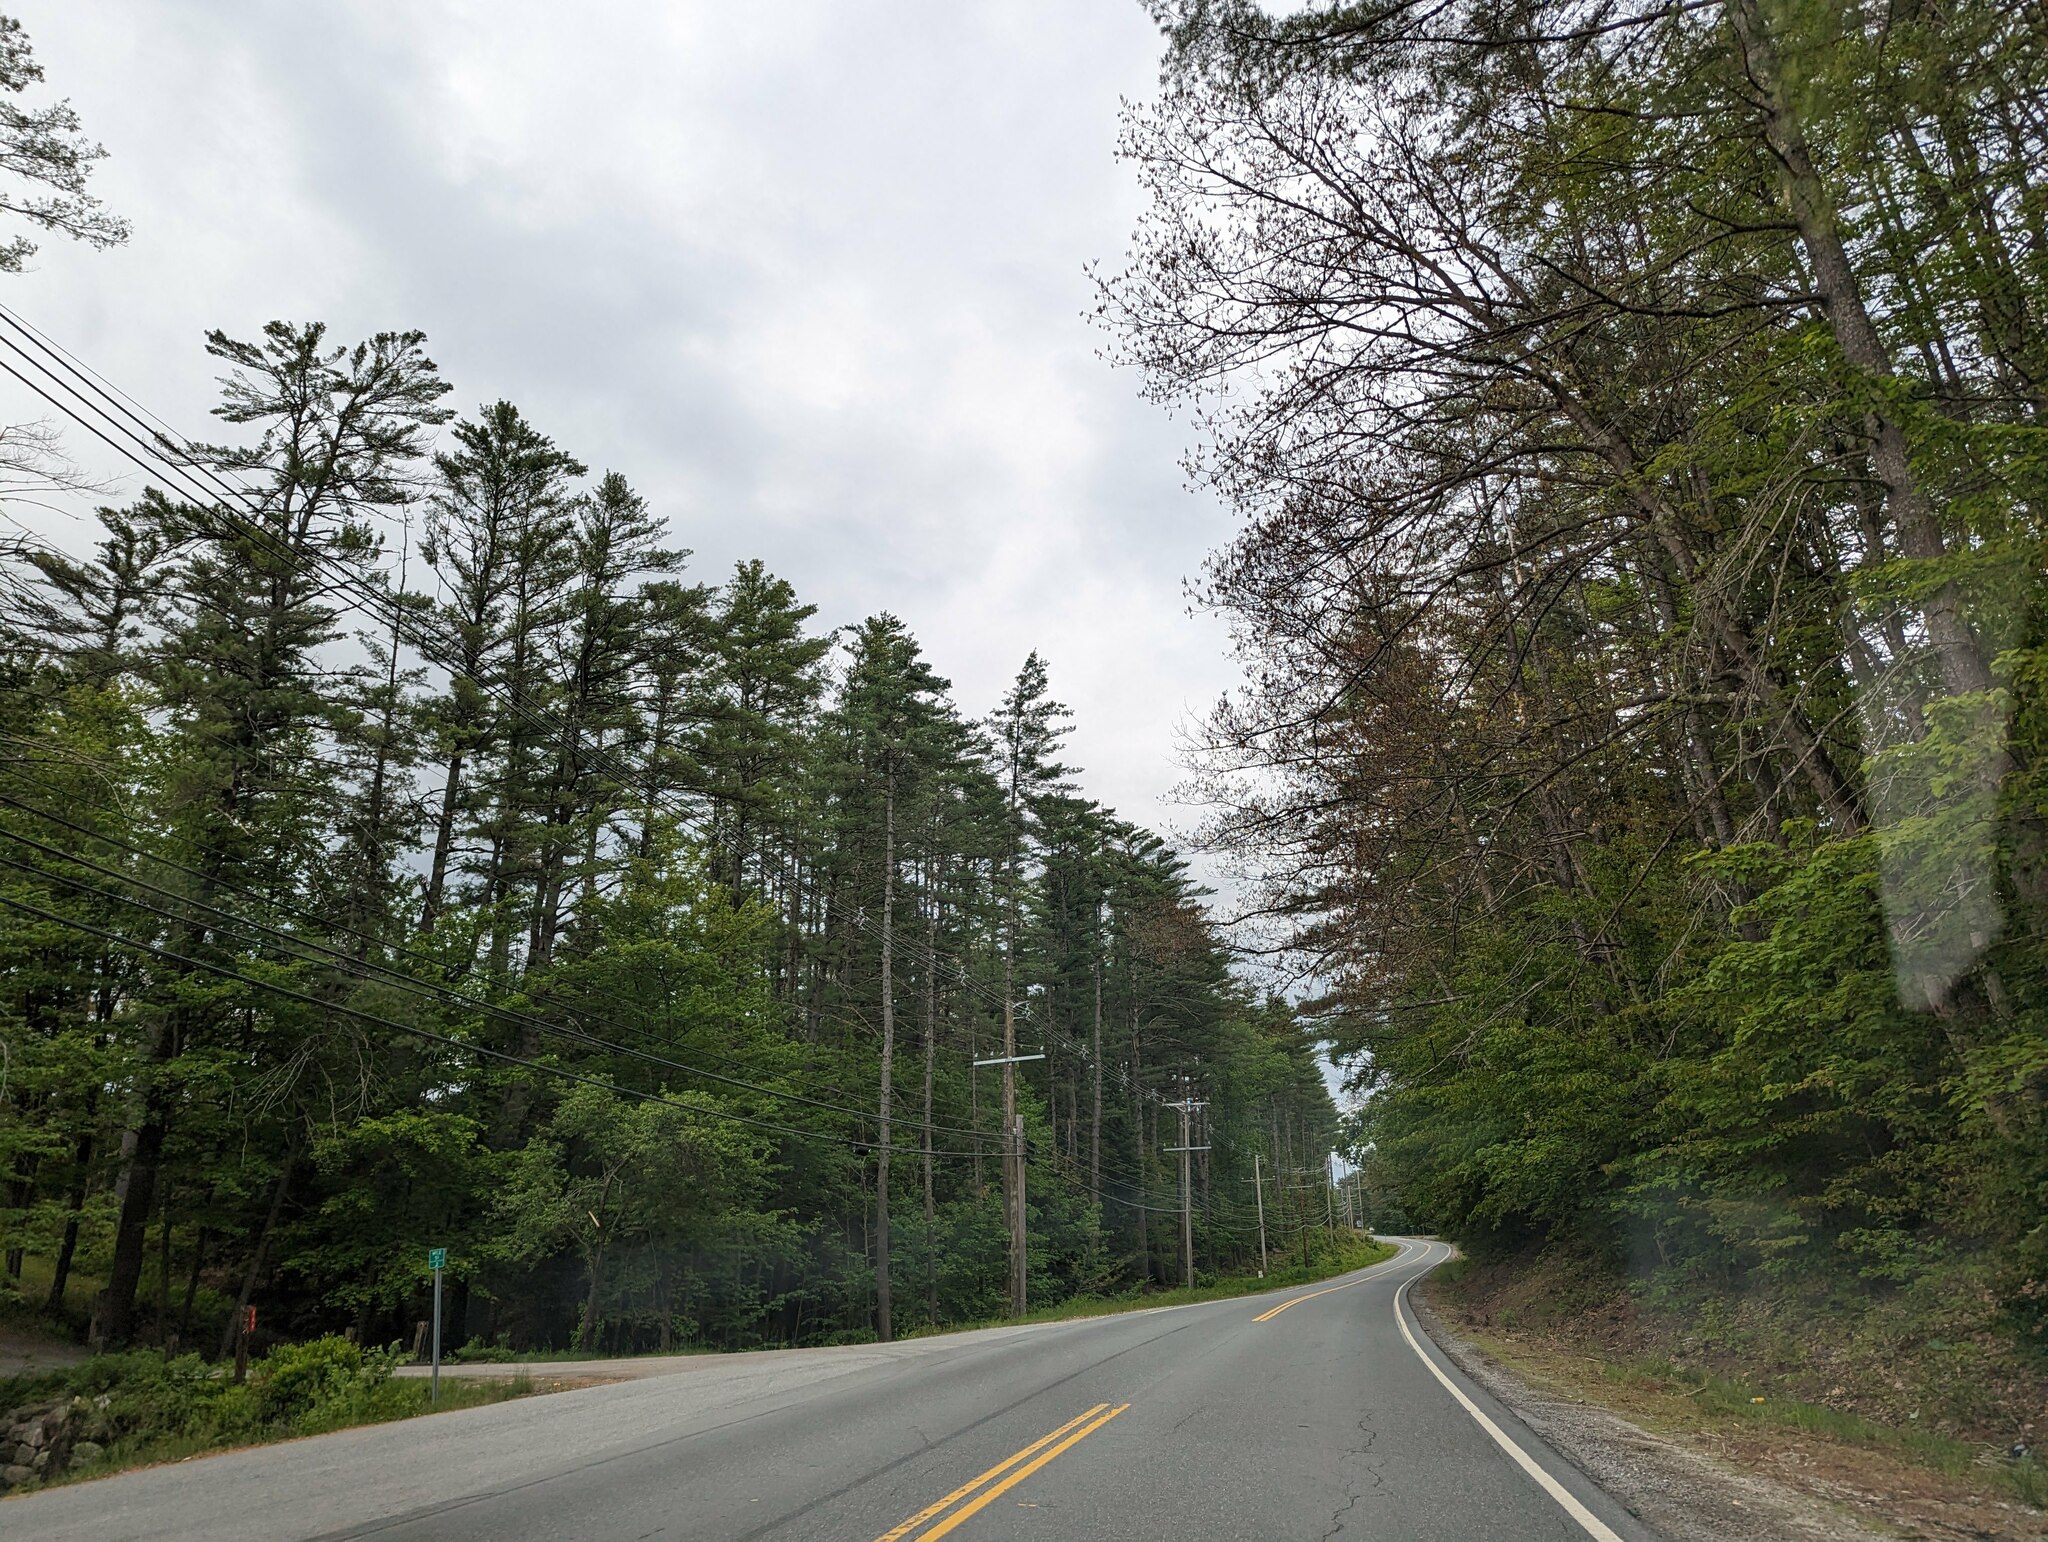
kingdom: Plantae
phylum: Tracheophyta
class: Pinopsida
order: Pinales
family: Pinaceae
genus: Pinus
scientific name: Pinus strobus
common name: Weymouth pine
